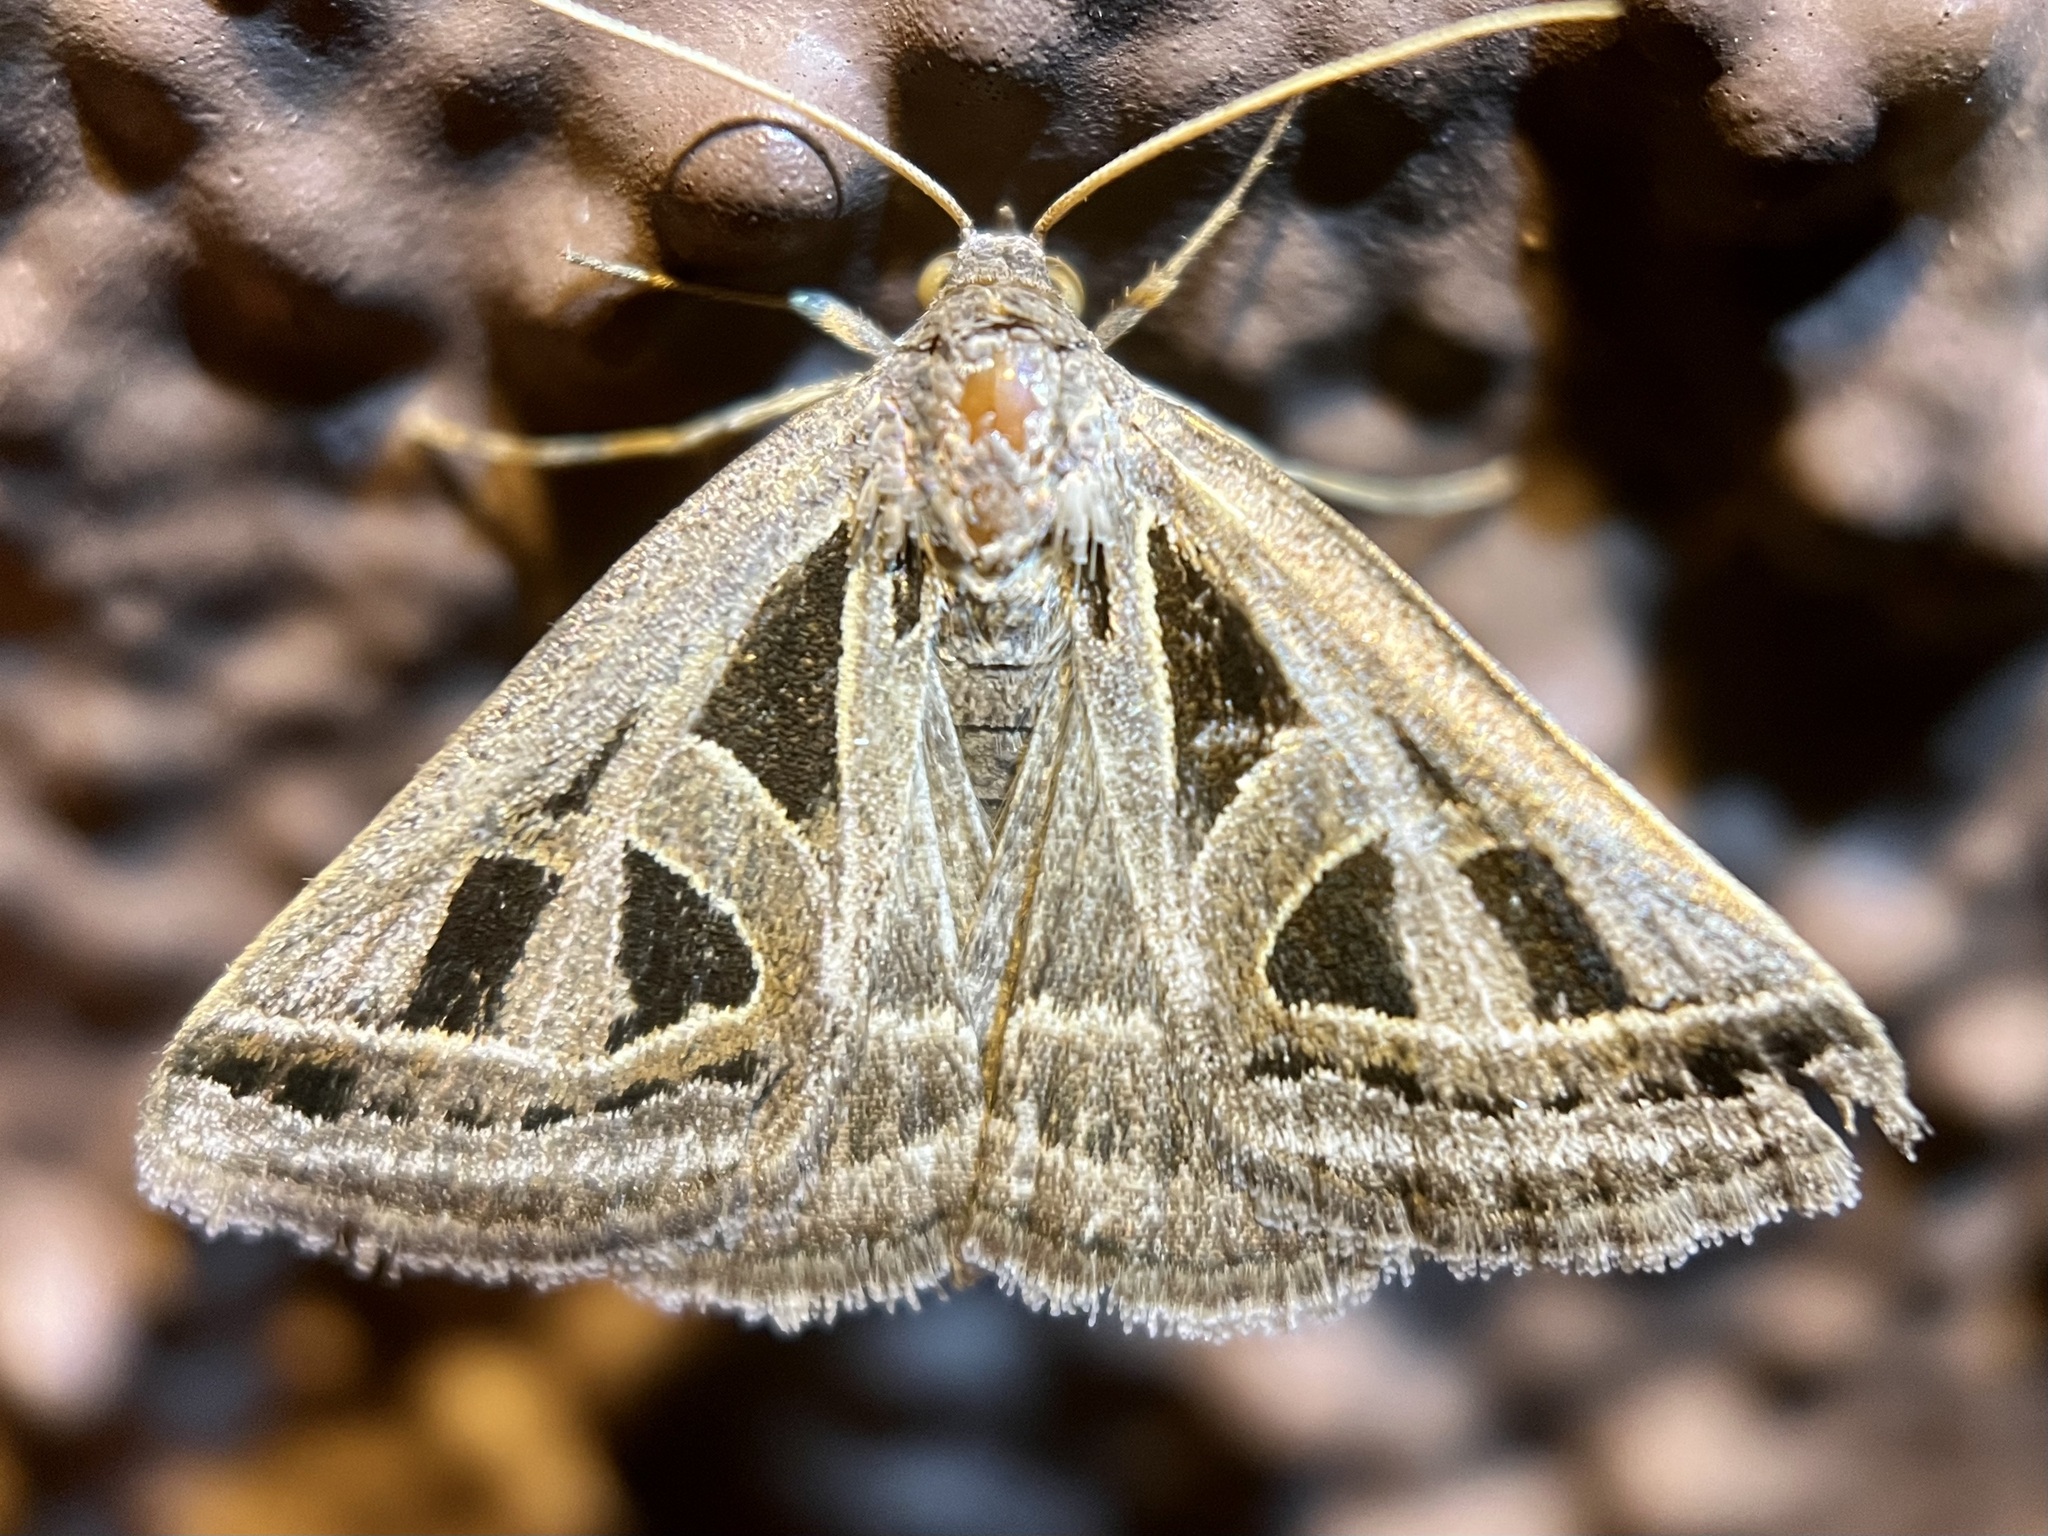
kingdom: Animalia
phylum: Arthropoda
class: Insecta
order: Lepidoptera
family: Erebidae
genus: Callistege
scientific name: Callistege diagonalis
